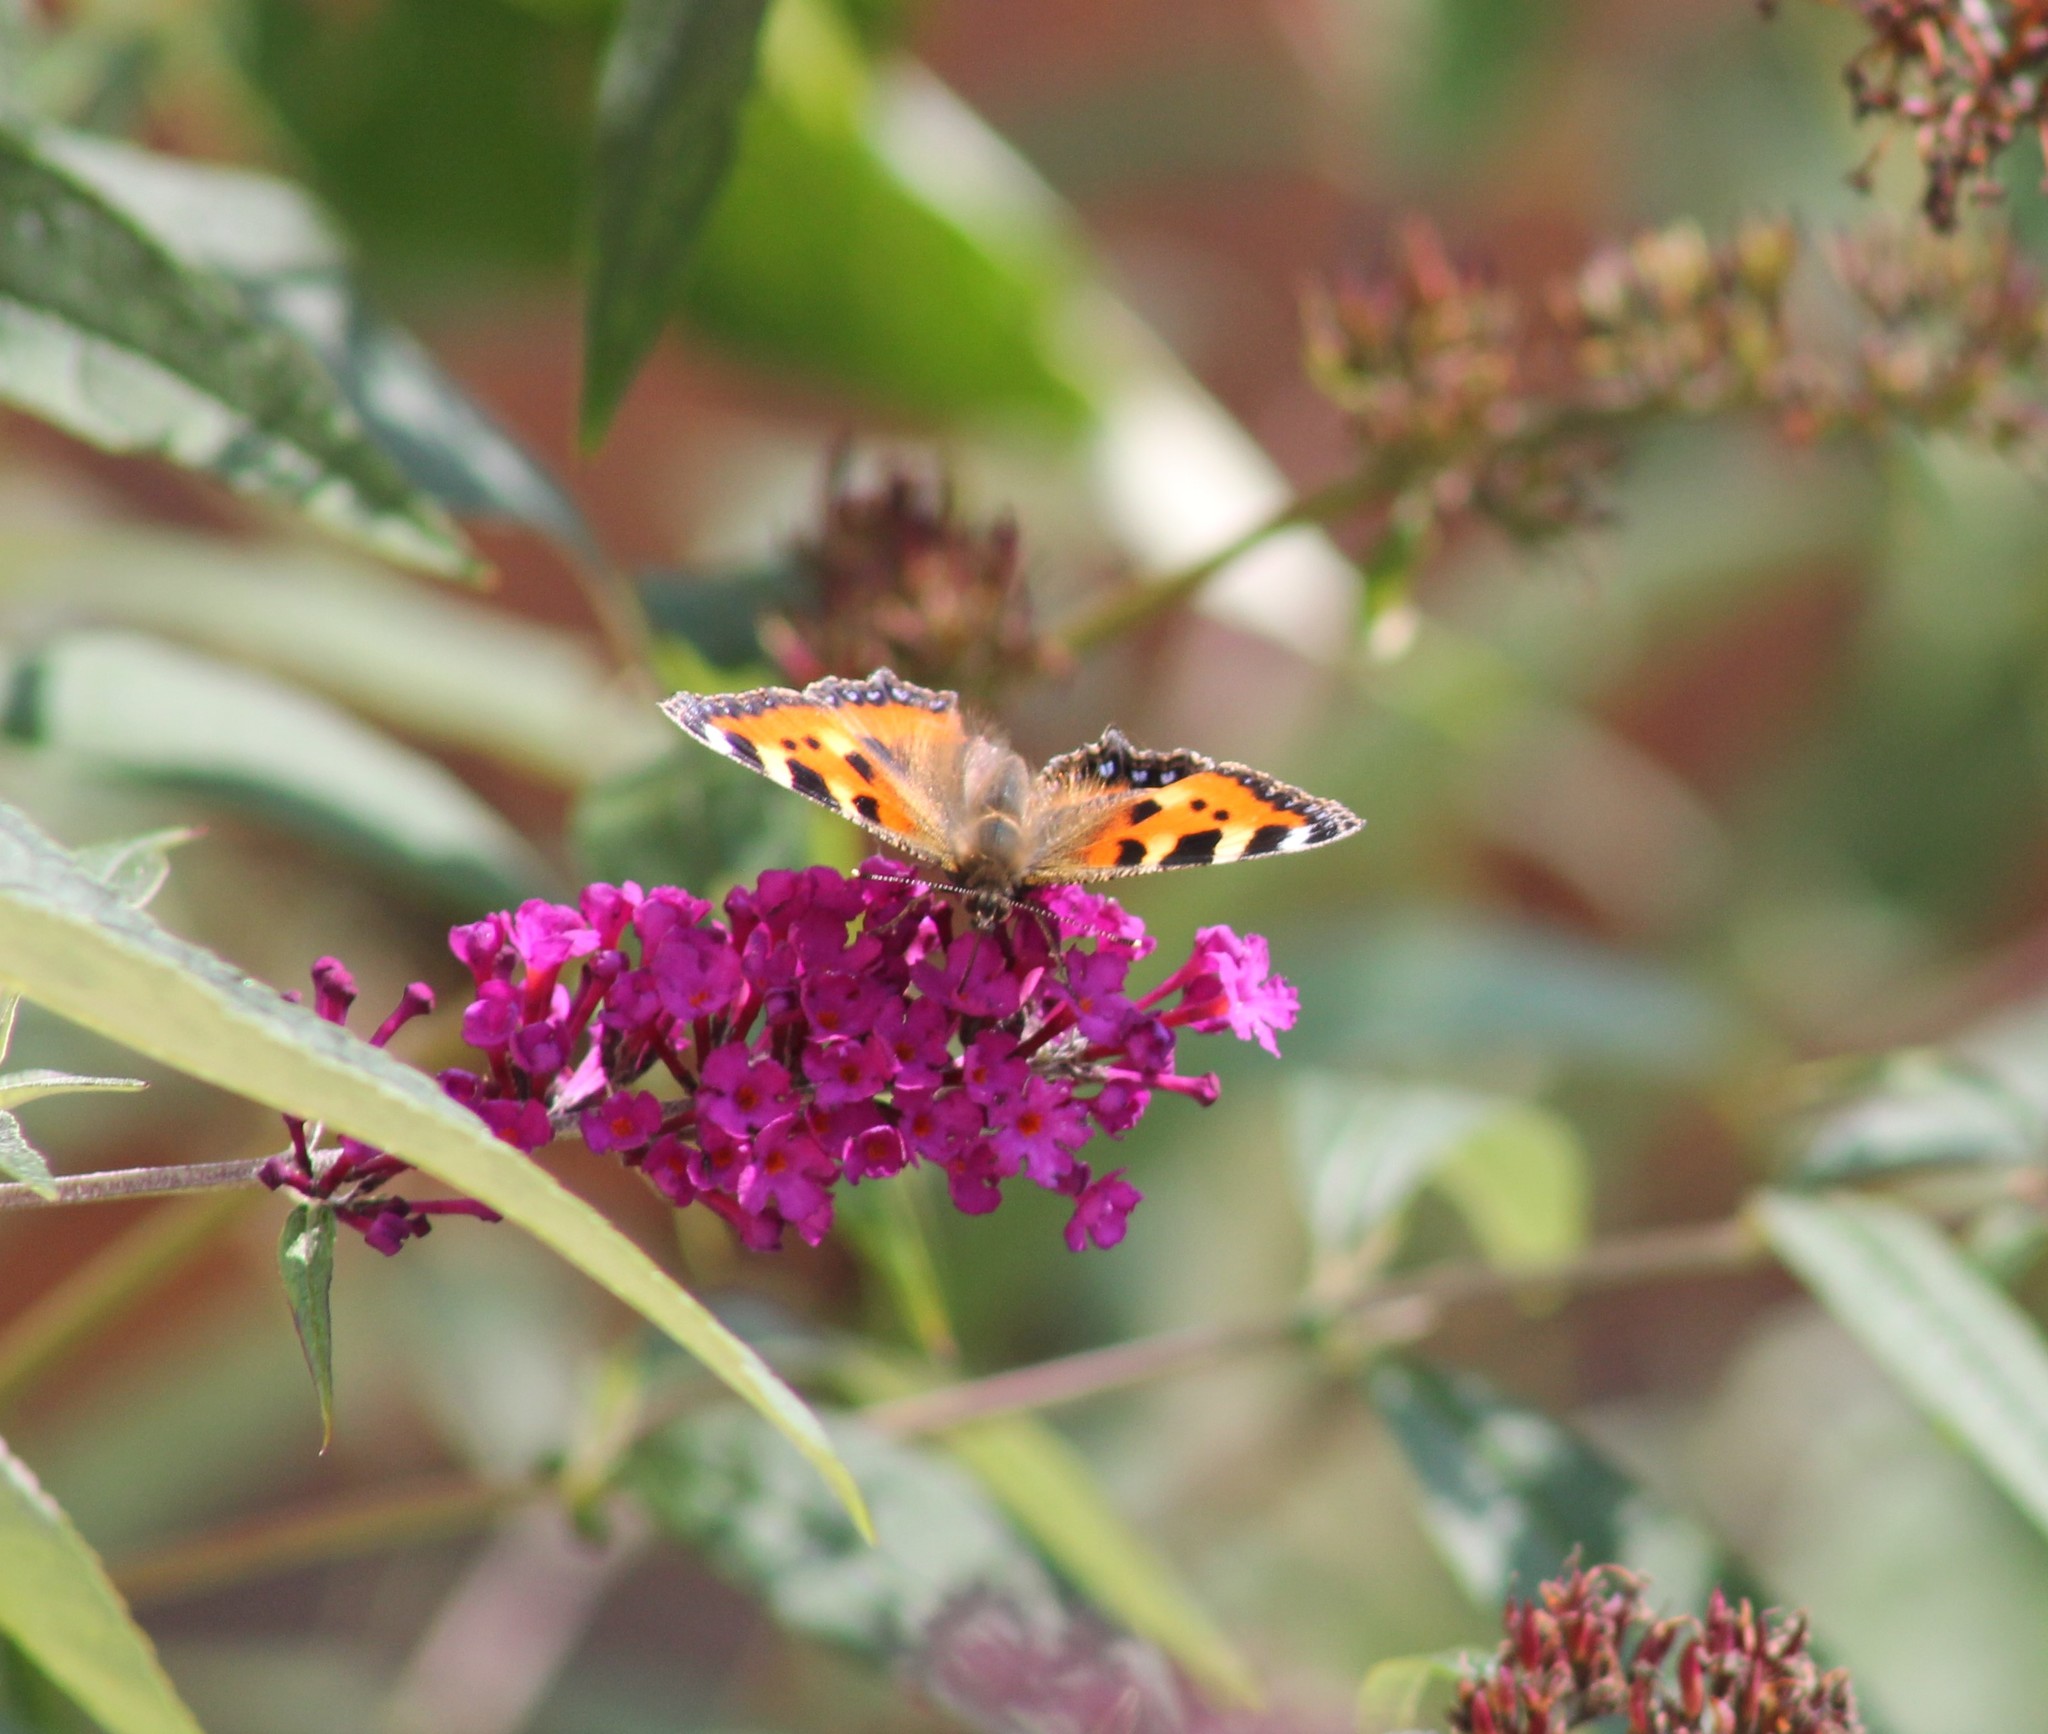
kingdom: Animalia
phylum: Arthropoda
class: Insecta
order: Lepidoptera
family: Nymphalidae
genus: Aglais
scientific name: Aglais urticae
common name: Small tortoiseshell
